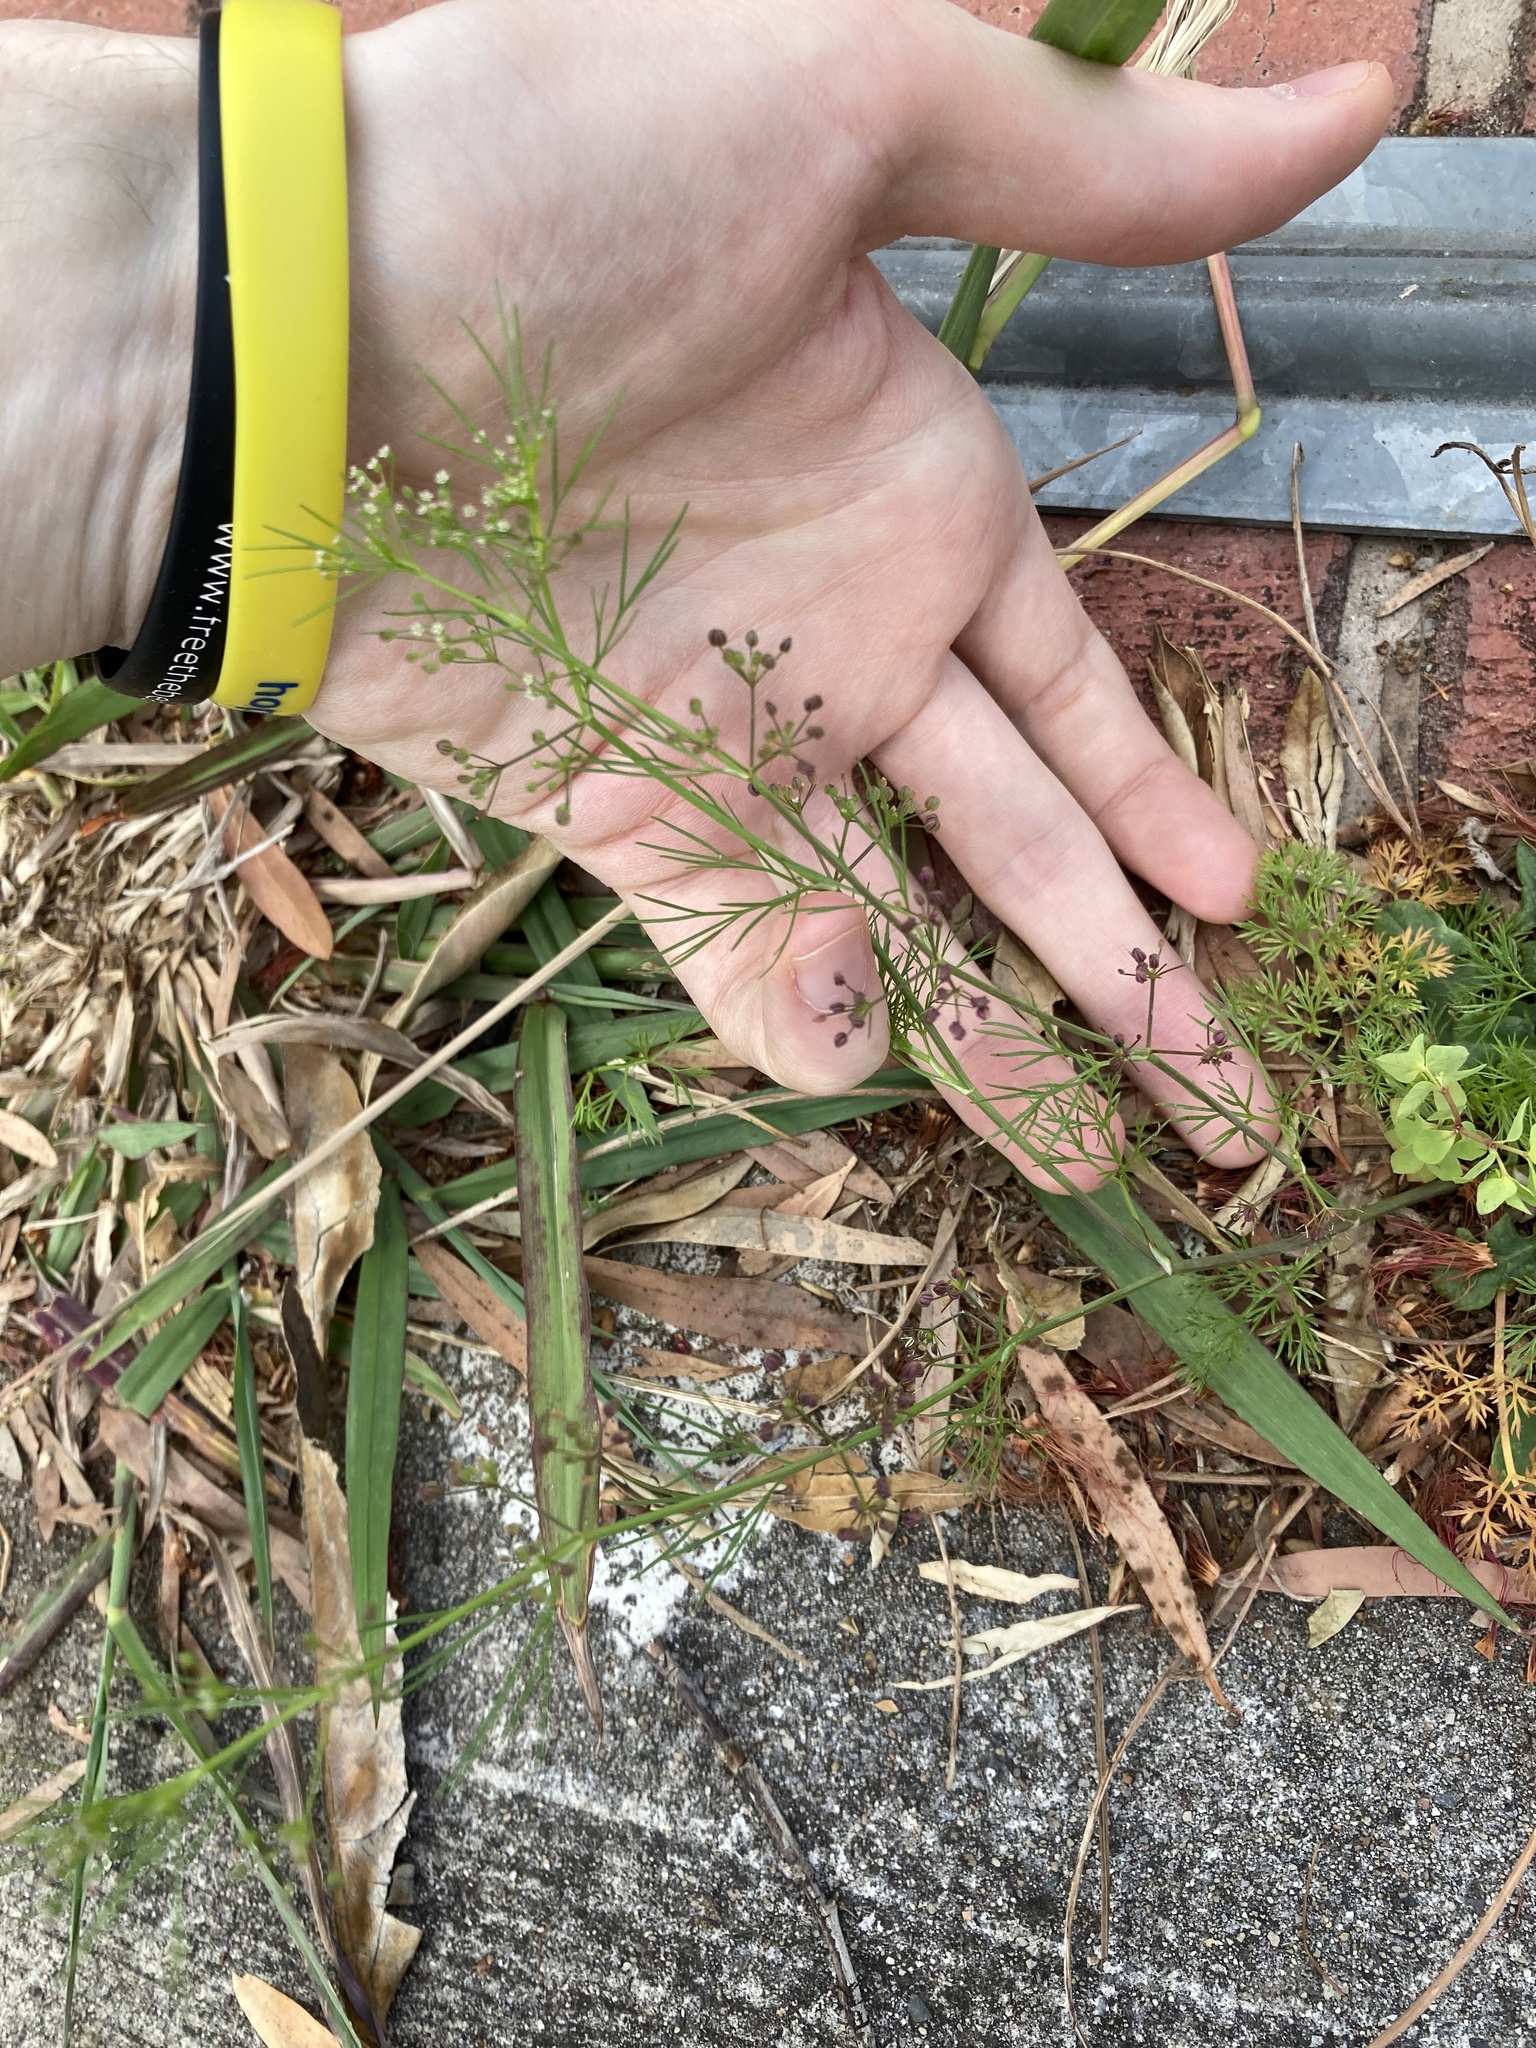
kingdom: Plantae
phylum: Tracheophyta
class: Magnoliopsida
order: Apiales
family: Apiaceae
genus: Cyclospermum
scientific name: Cyclospermum leptophyllum
